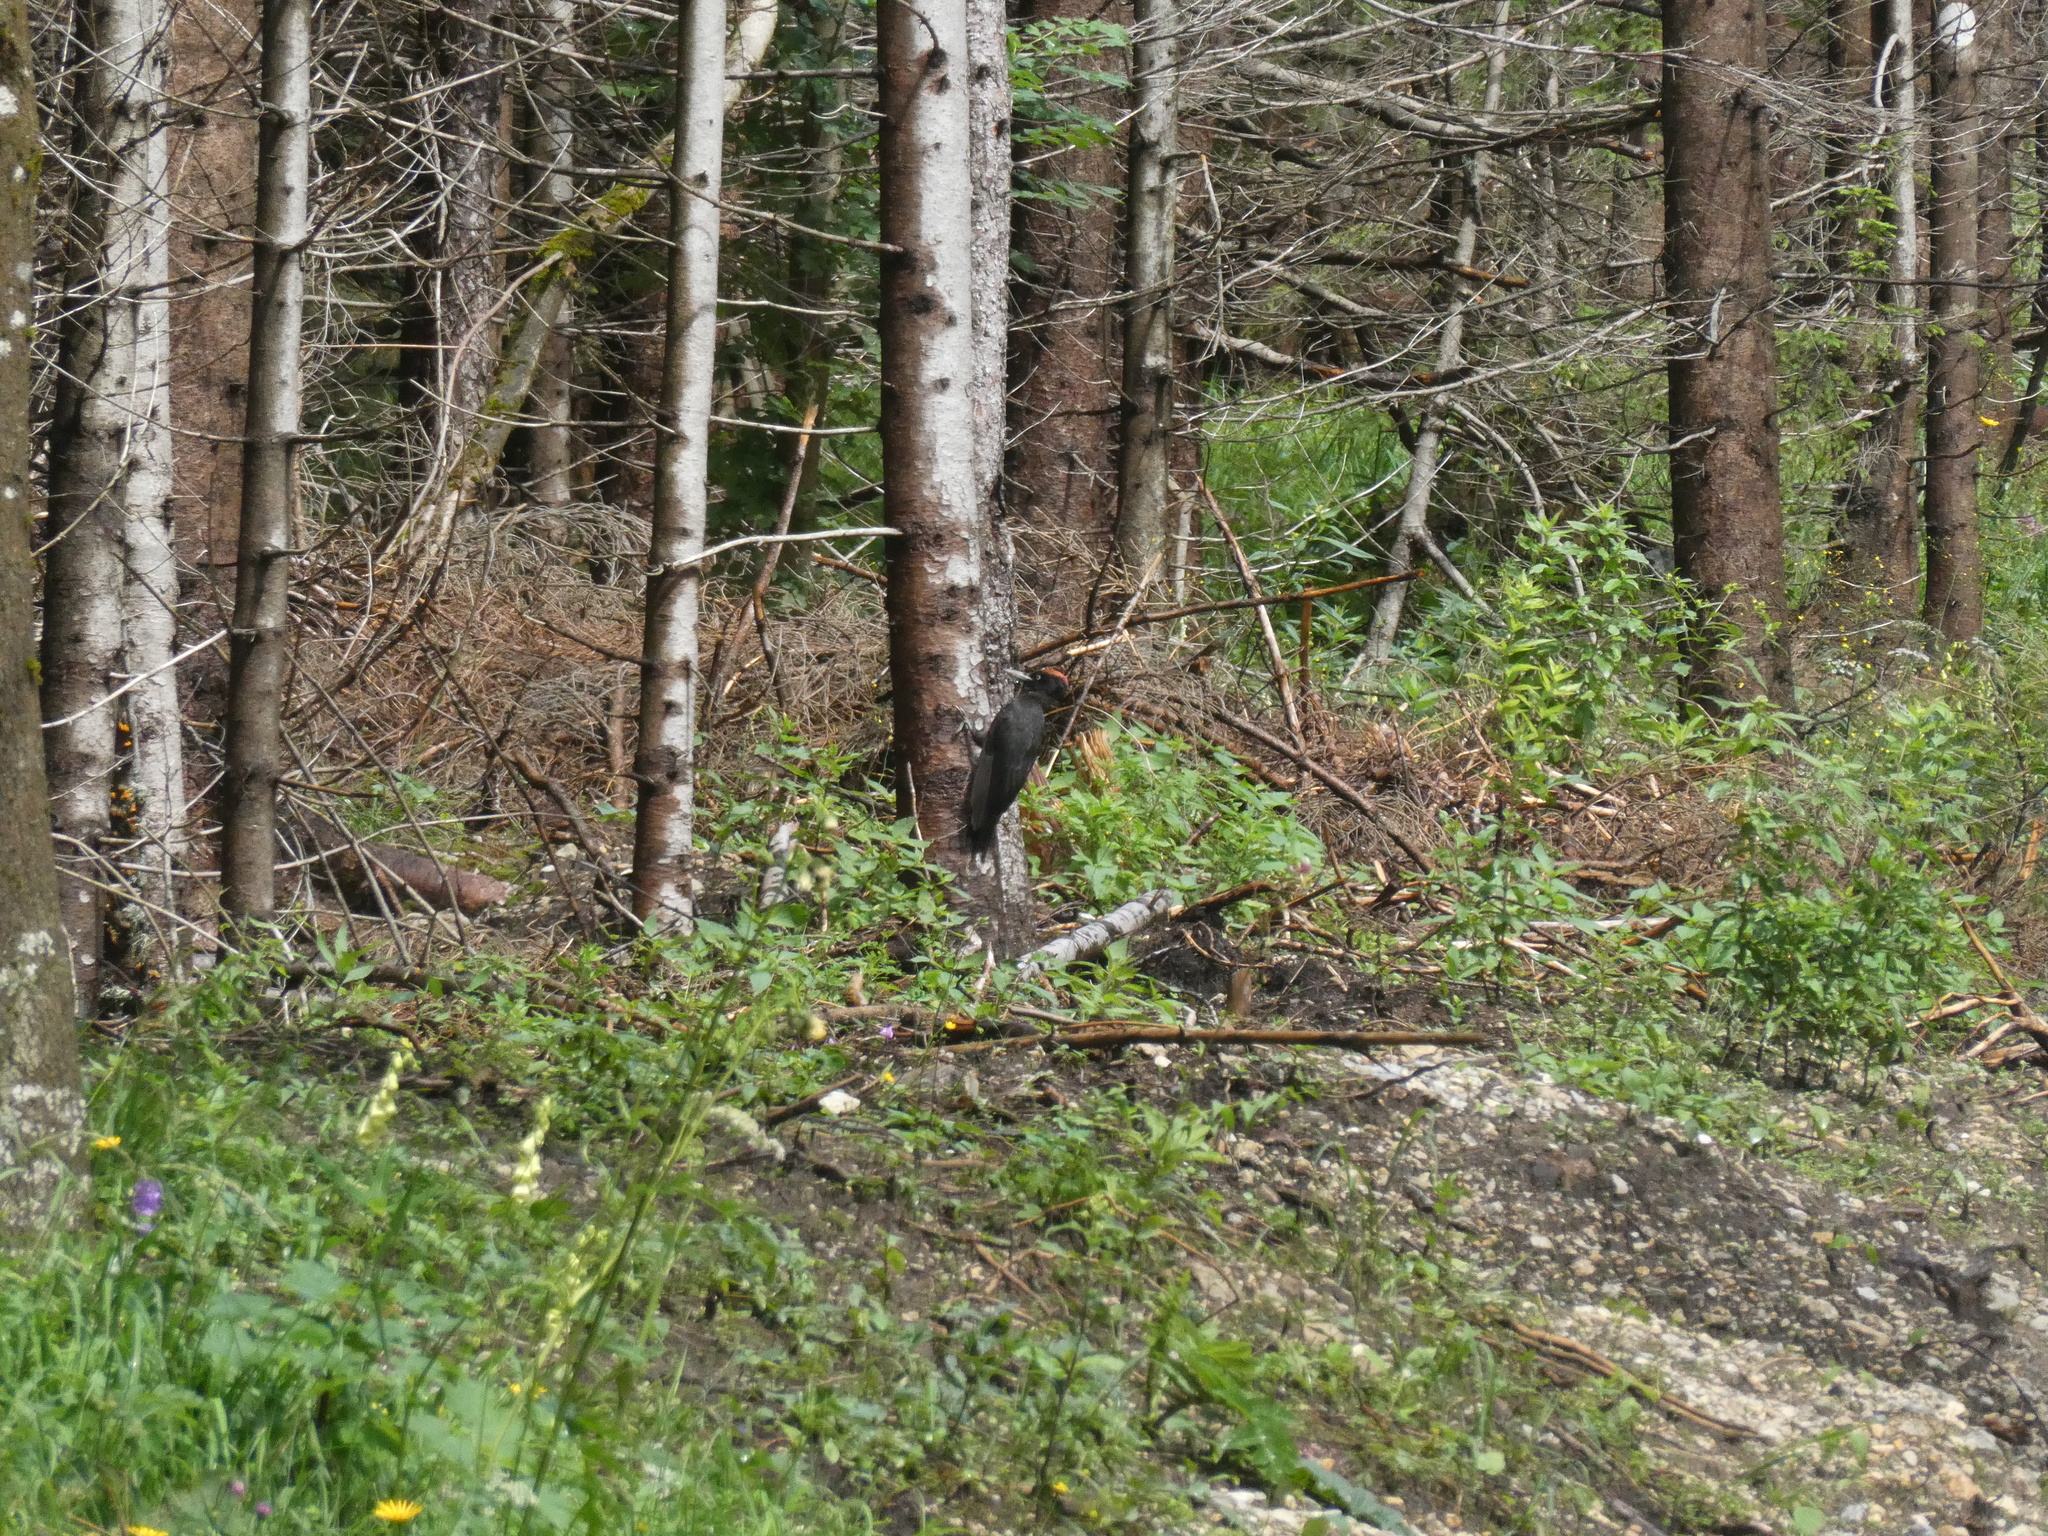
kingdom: Animalia
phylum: Chordata
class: Aves
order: Piciformes
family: Picidae
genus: Dryocopus
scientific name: Dryocopus martius
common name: Black woodpecker
